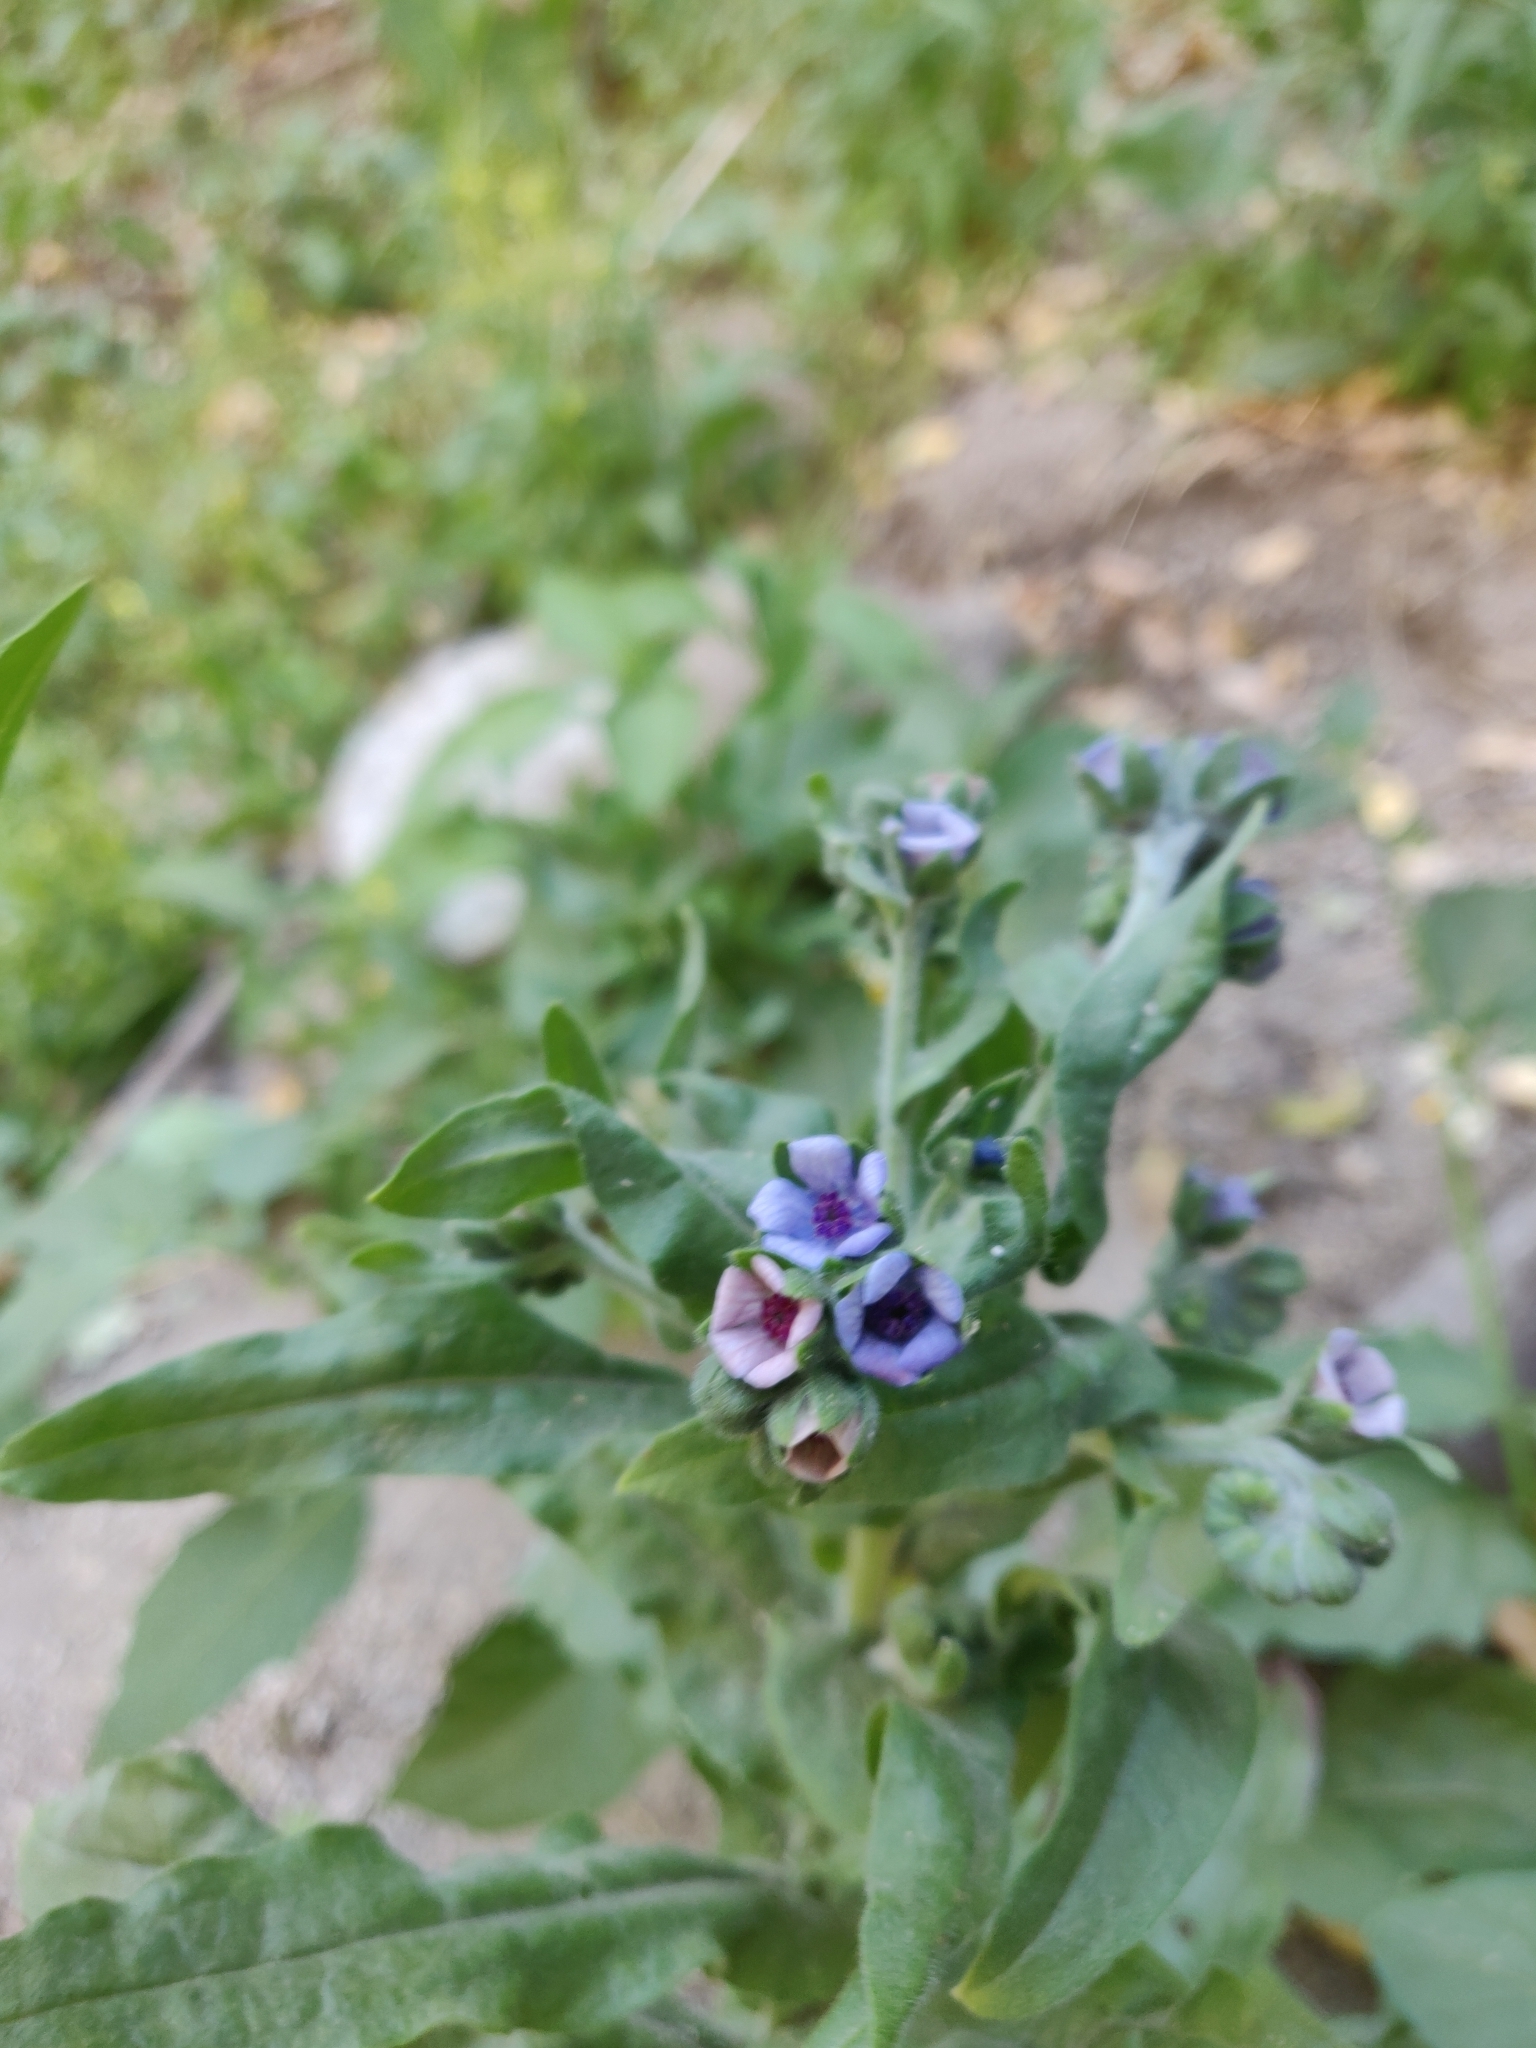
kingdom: Plantae
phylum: Tracheophyta
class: Magnoliopsida
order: Boraginales
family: Boraginaceae
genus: Cynoglossum
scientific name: Cynoglossum creticum
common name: Blue hound's tongue
